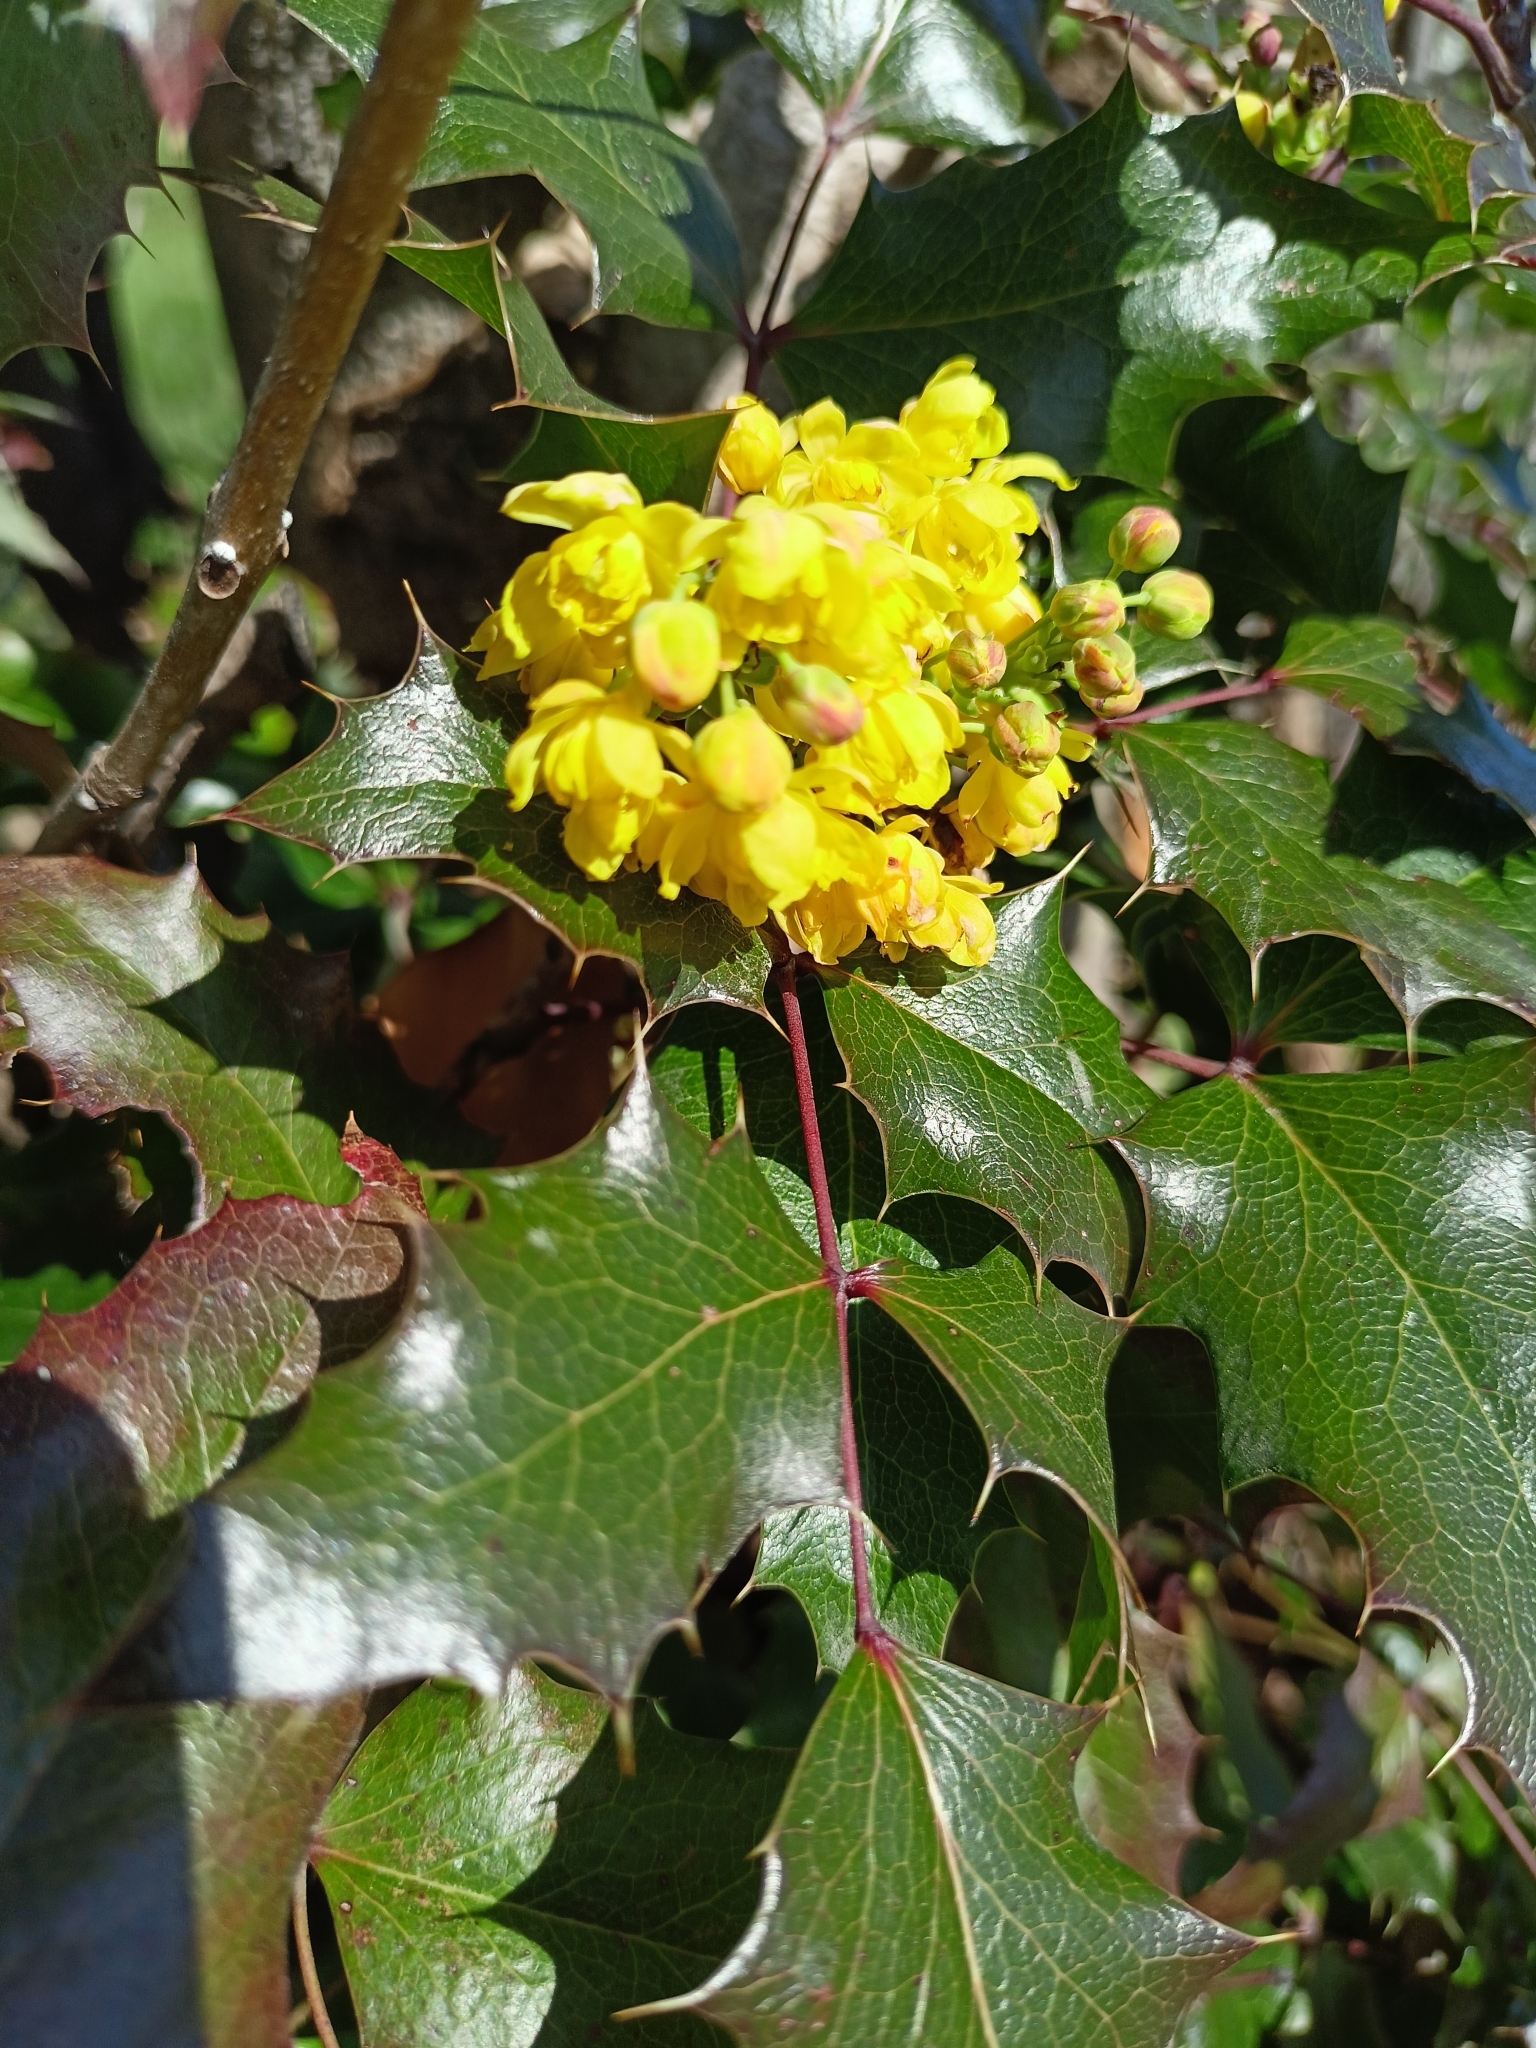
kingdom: Plantae
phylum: Tracheophyta
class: Magnoliopsida
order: Ranunculales
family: Berberidaceae
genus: Mahonia
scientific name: Mahonia aquifolium
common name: Oregon-grape
